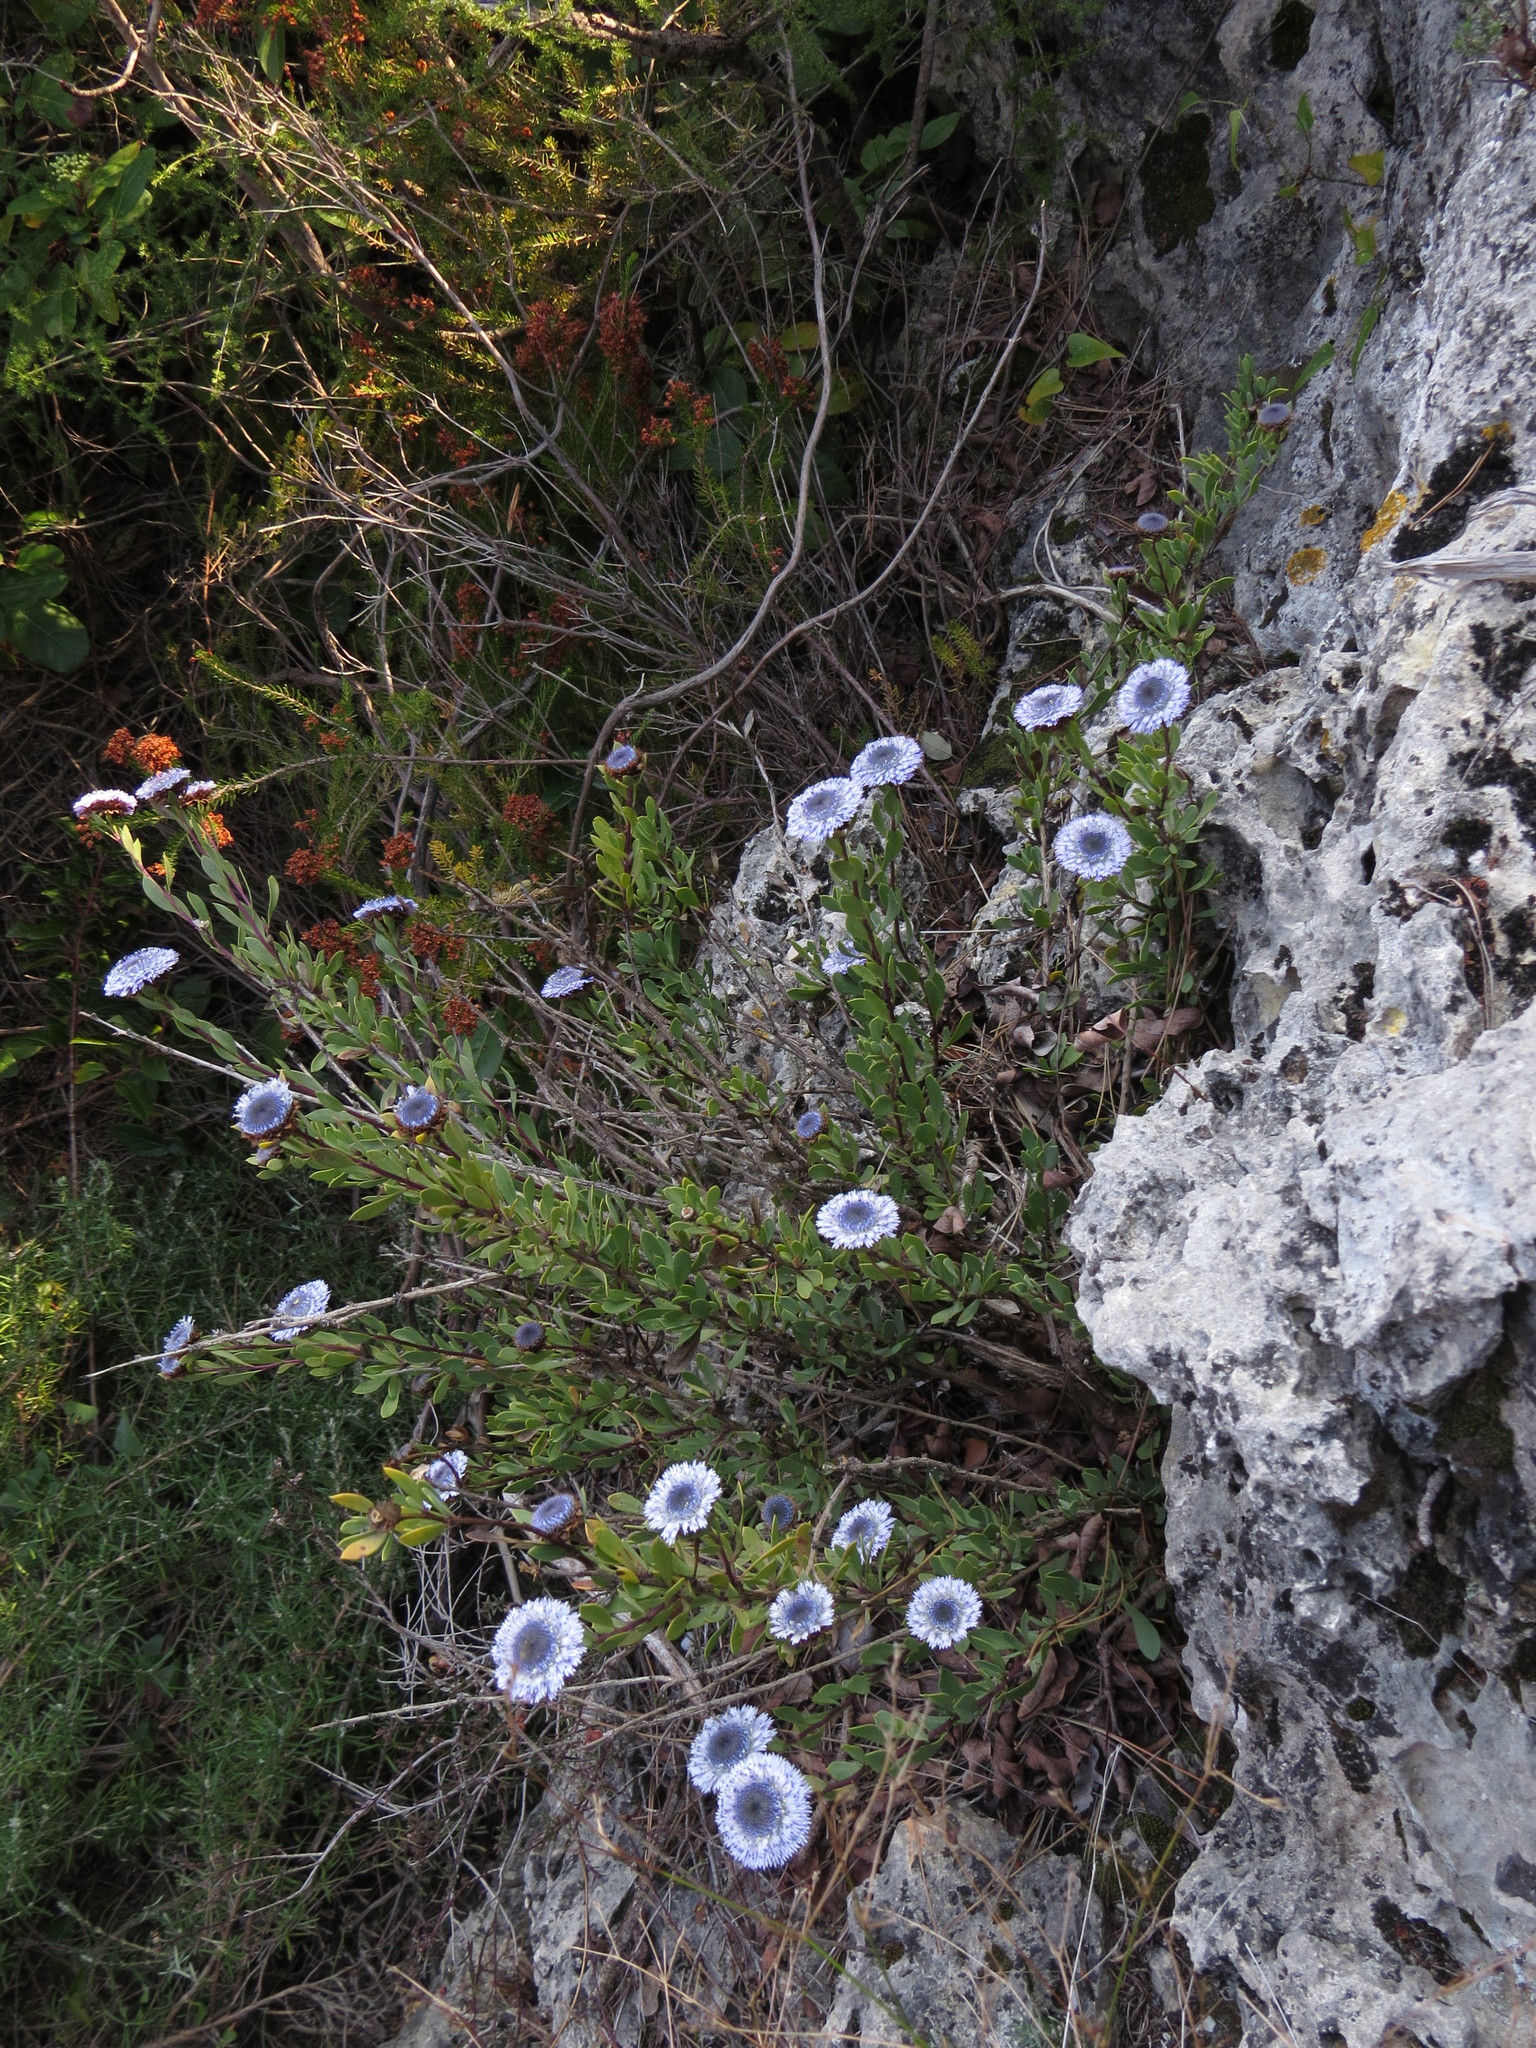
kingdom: Plantae
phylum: Tracheophyta
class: Magnoliopsida
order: Lamiales
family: Plantaginaceae
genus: Globularia
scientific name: Globularia alypum
